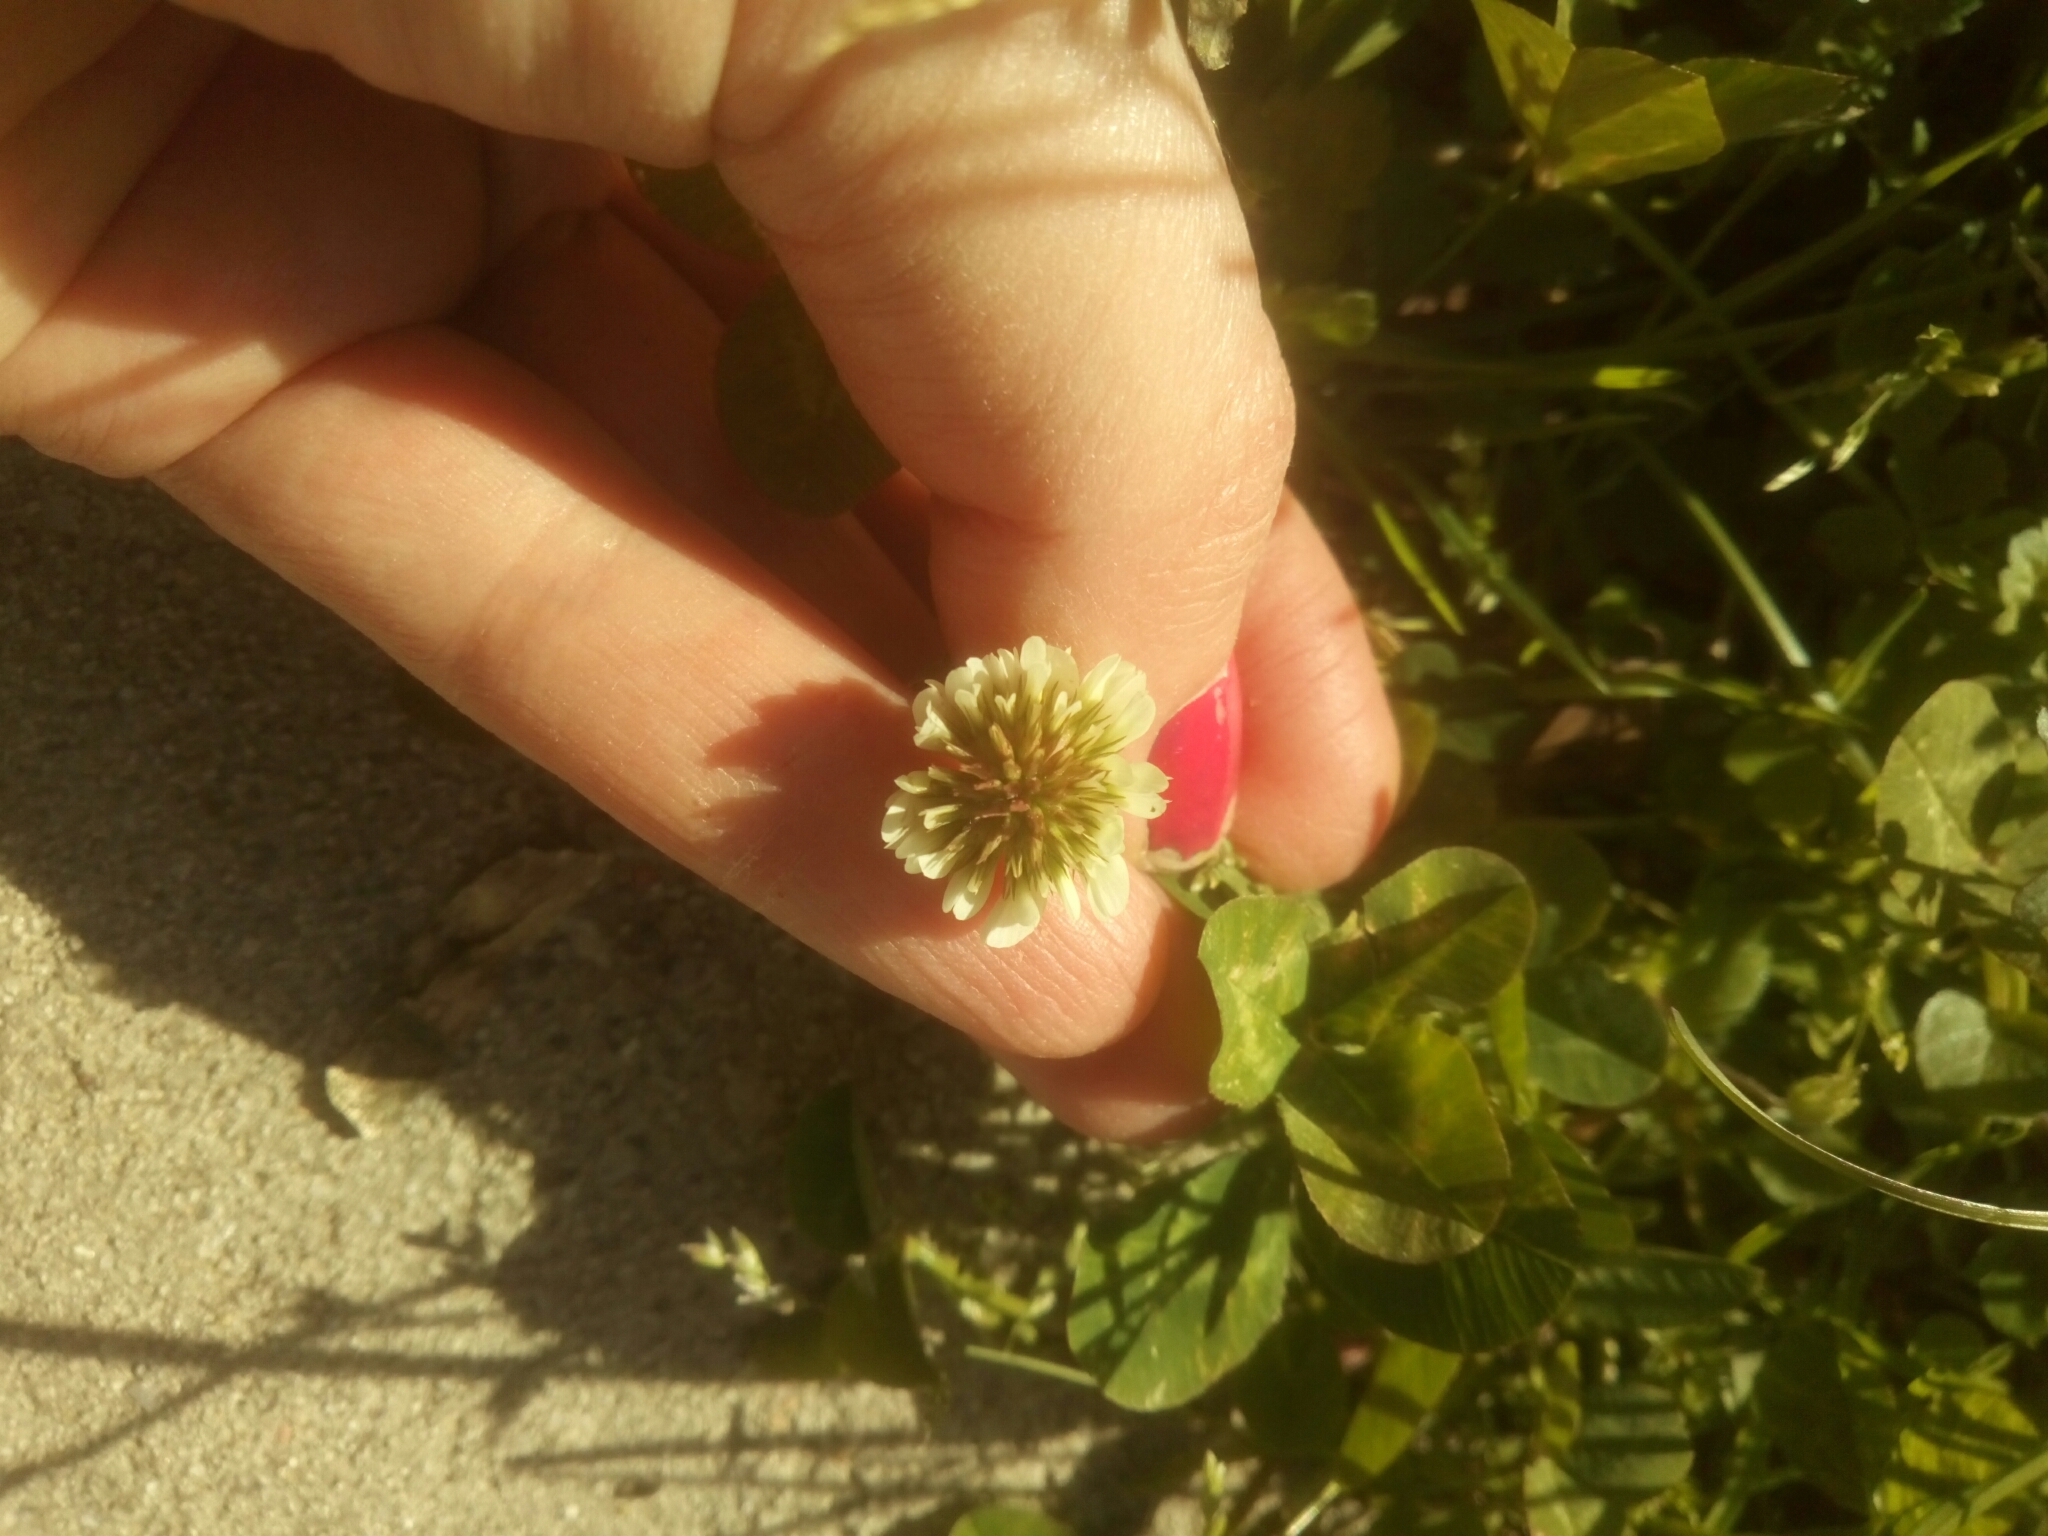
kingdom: Plantae
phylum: Tracheophyta
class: Magnoliopsida
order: Fabales
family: Fabaceae
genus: Trifolium
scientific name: Trifolium repens
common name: White clover
